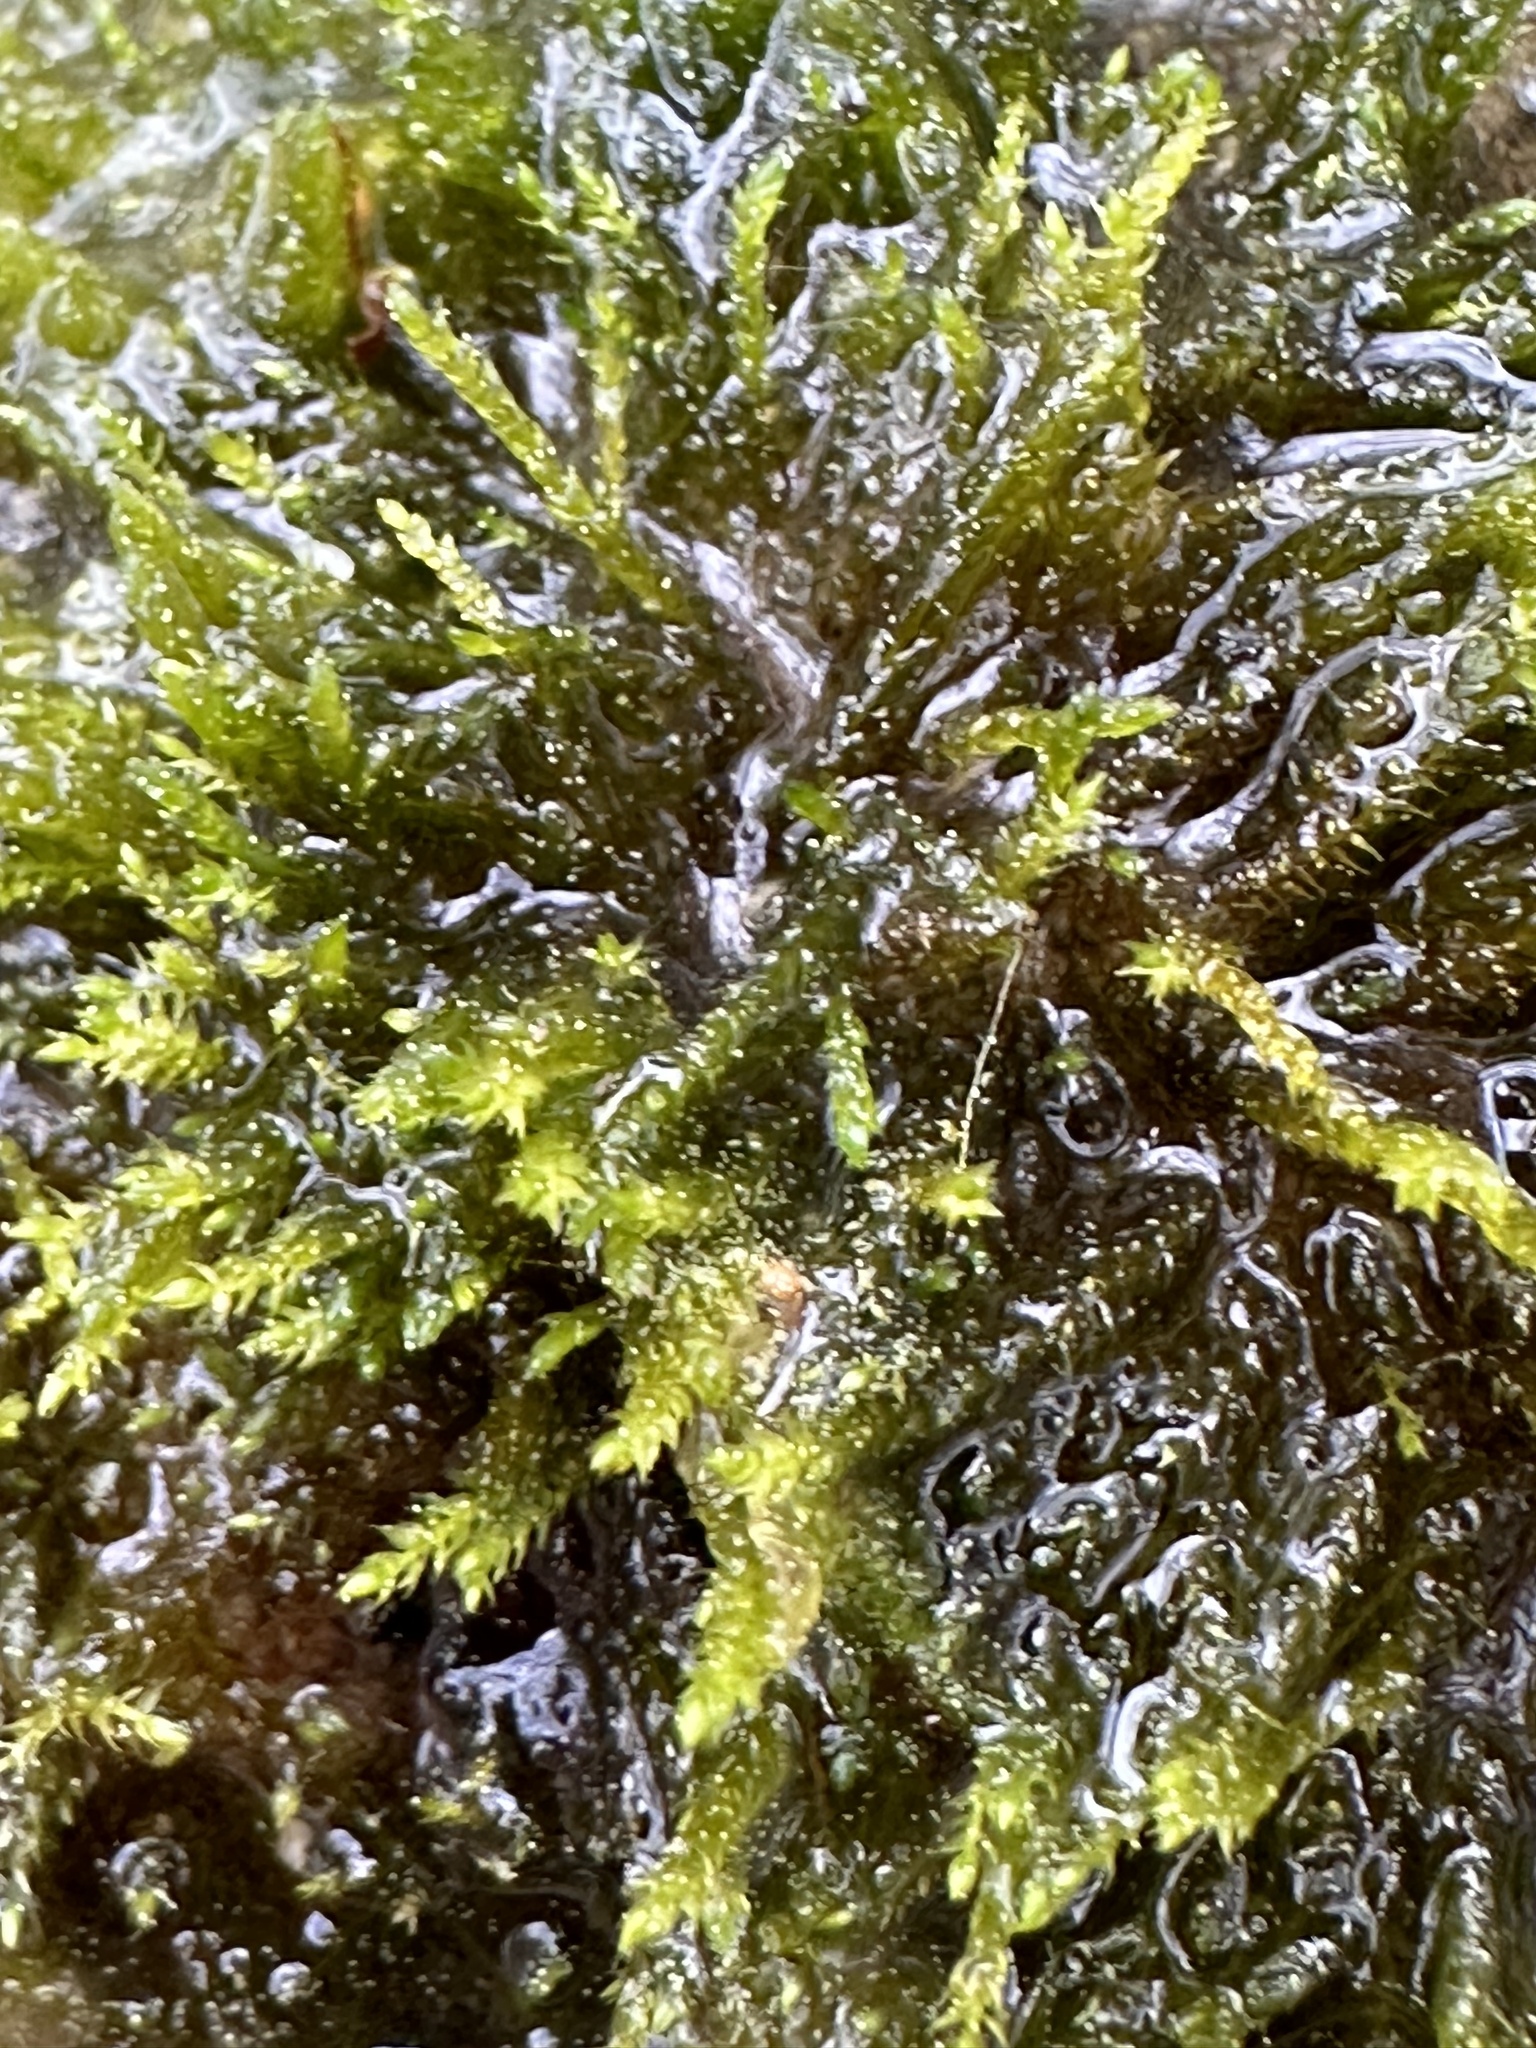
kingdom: Plantae
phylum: Bryophyta
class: Bryopsida
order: Hypnales
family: Amblystegiaceae
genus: Hygroamblystegium
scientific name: Hygroamblystegium fluviatile
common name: Brook-side feather-moss
